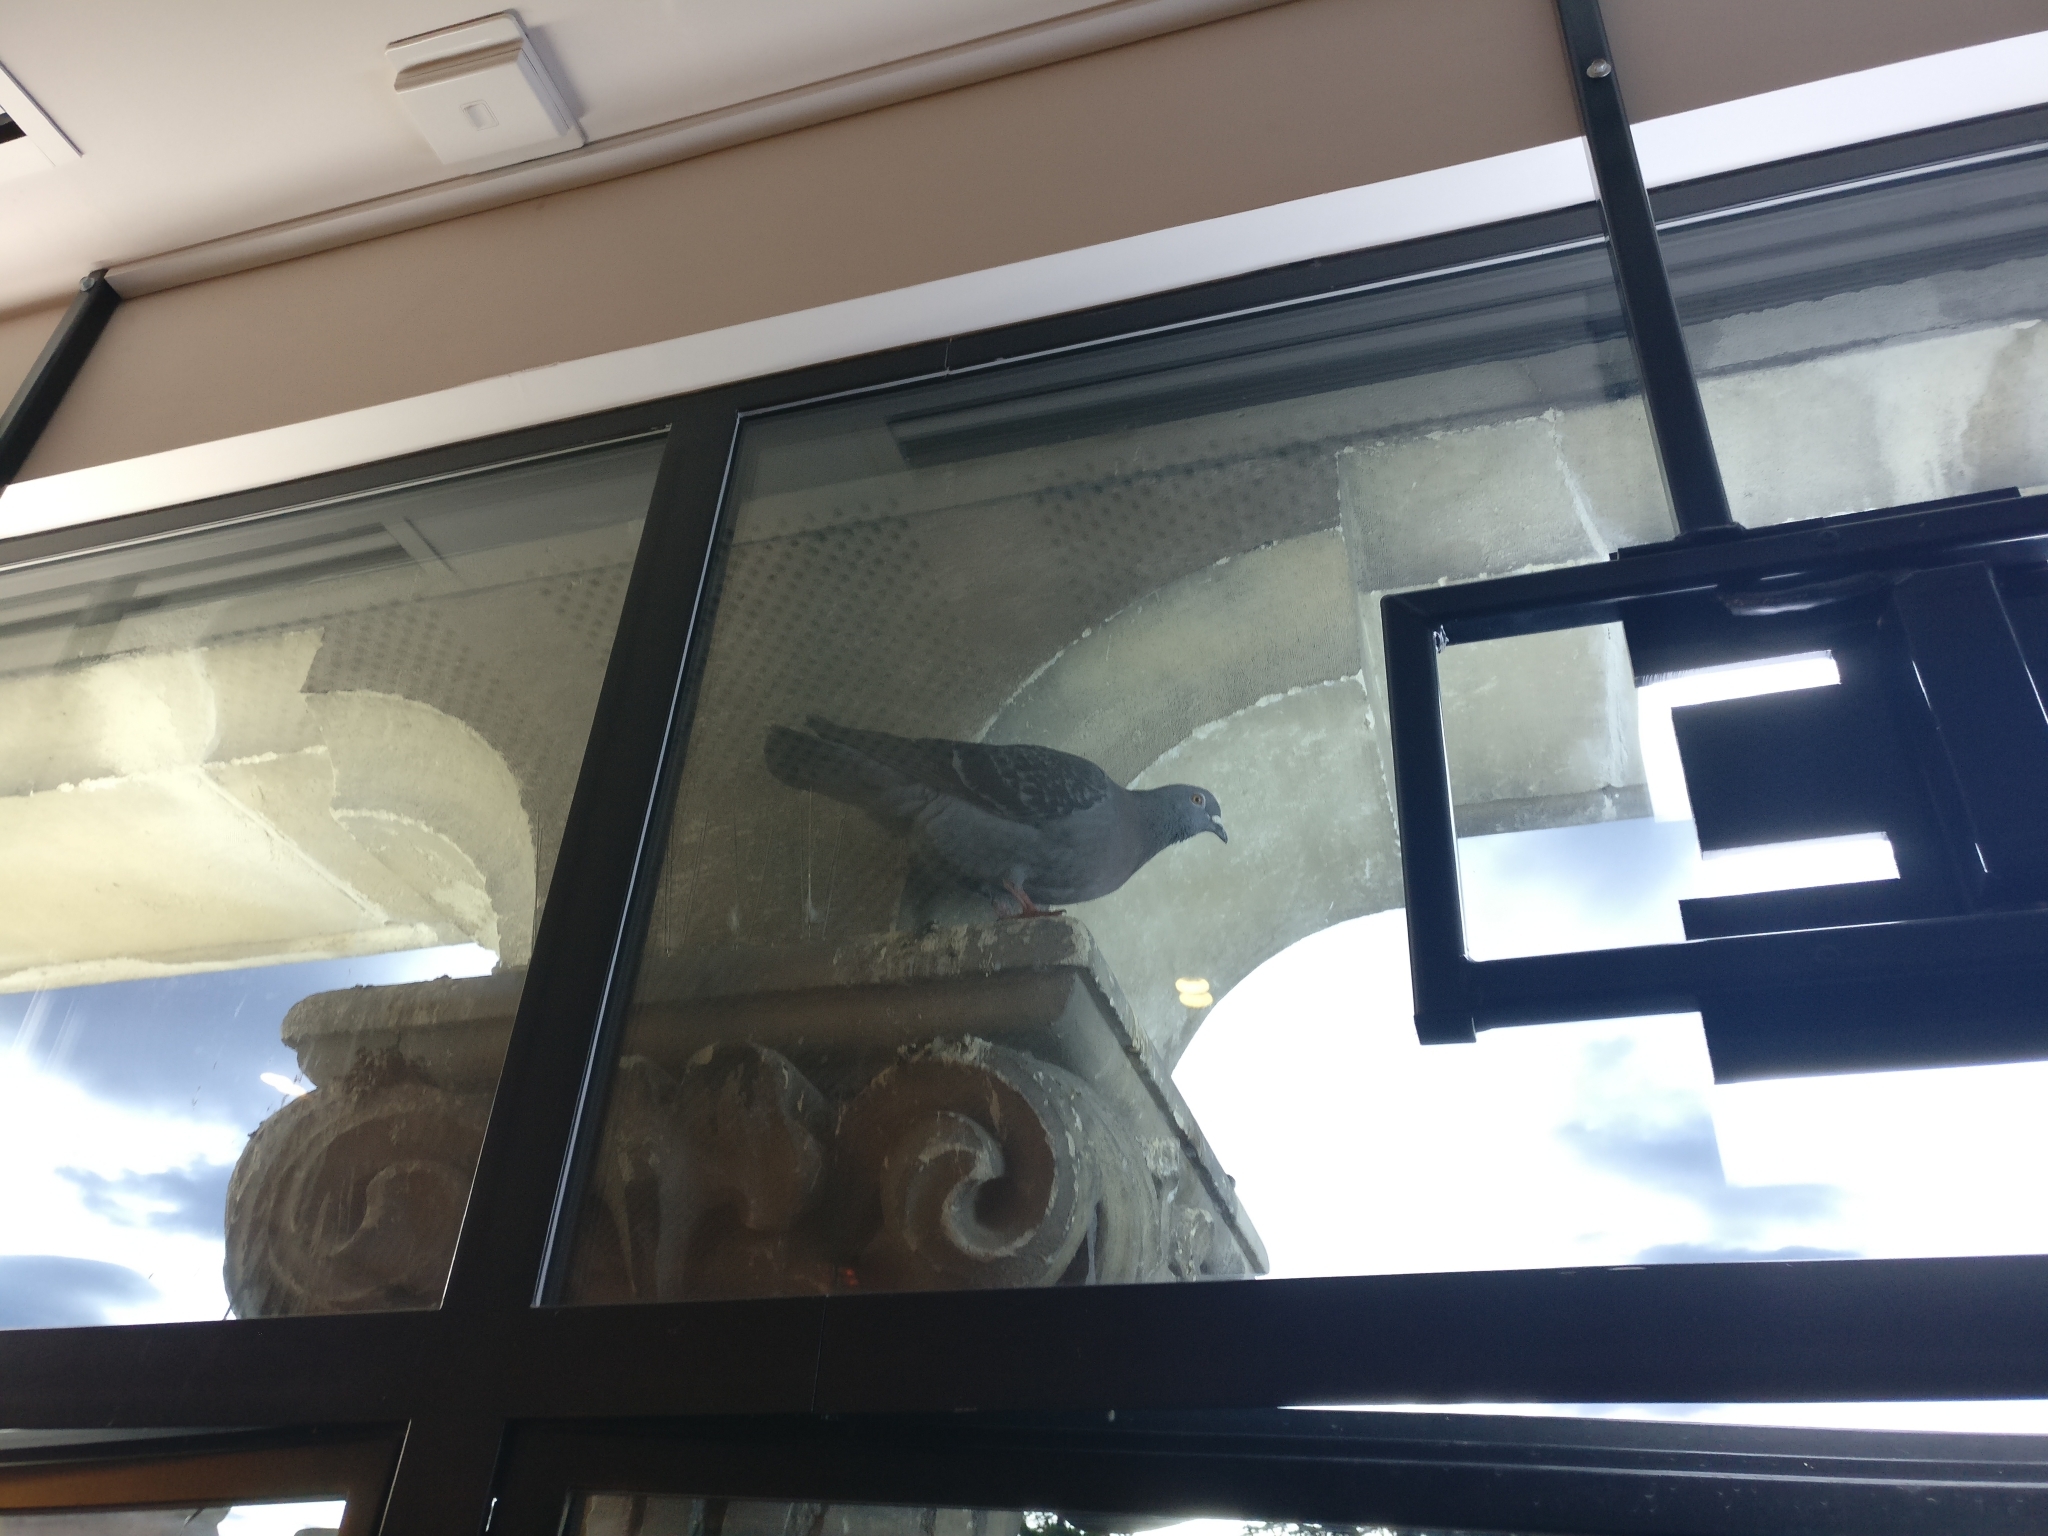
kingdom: Animalia
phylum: Chordata
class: Aves
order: Columbiformes
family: Columbidae
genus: Columba
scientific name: Columba livia
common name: Rock pigeon
